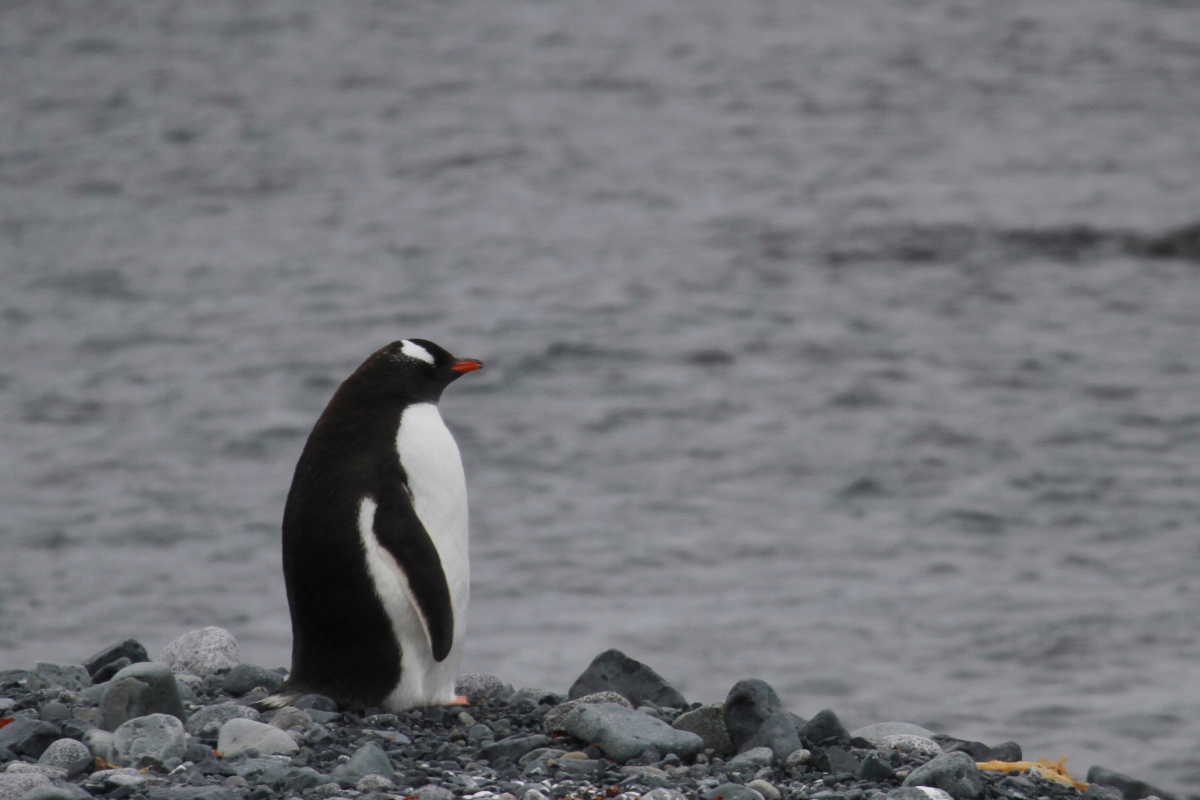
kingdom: Animalia
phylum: Chordata
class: Aves
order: Sphenisciformes
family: Spheniscidae
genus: Pygoscelis
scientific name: Pygoscelis papua
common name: Gentoo penguin
